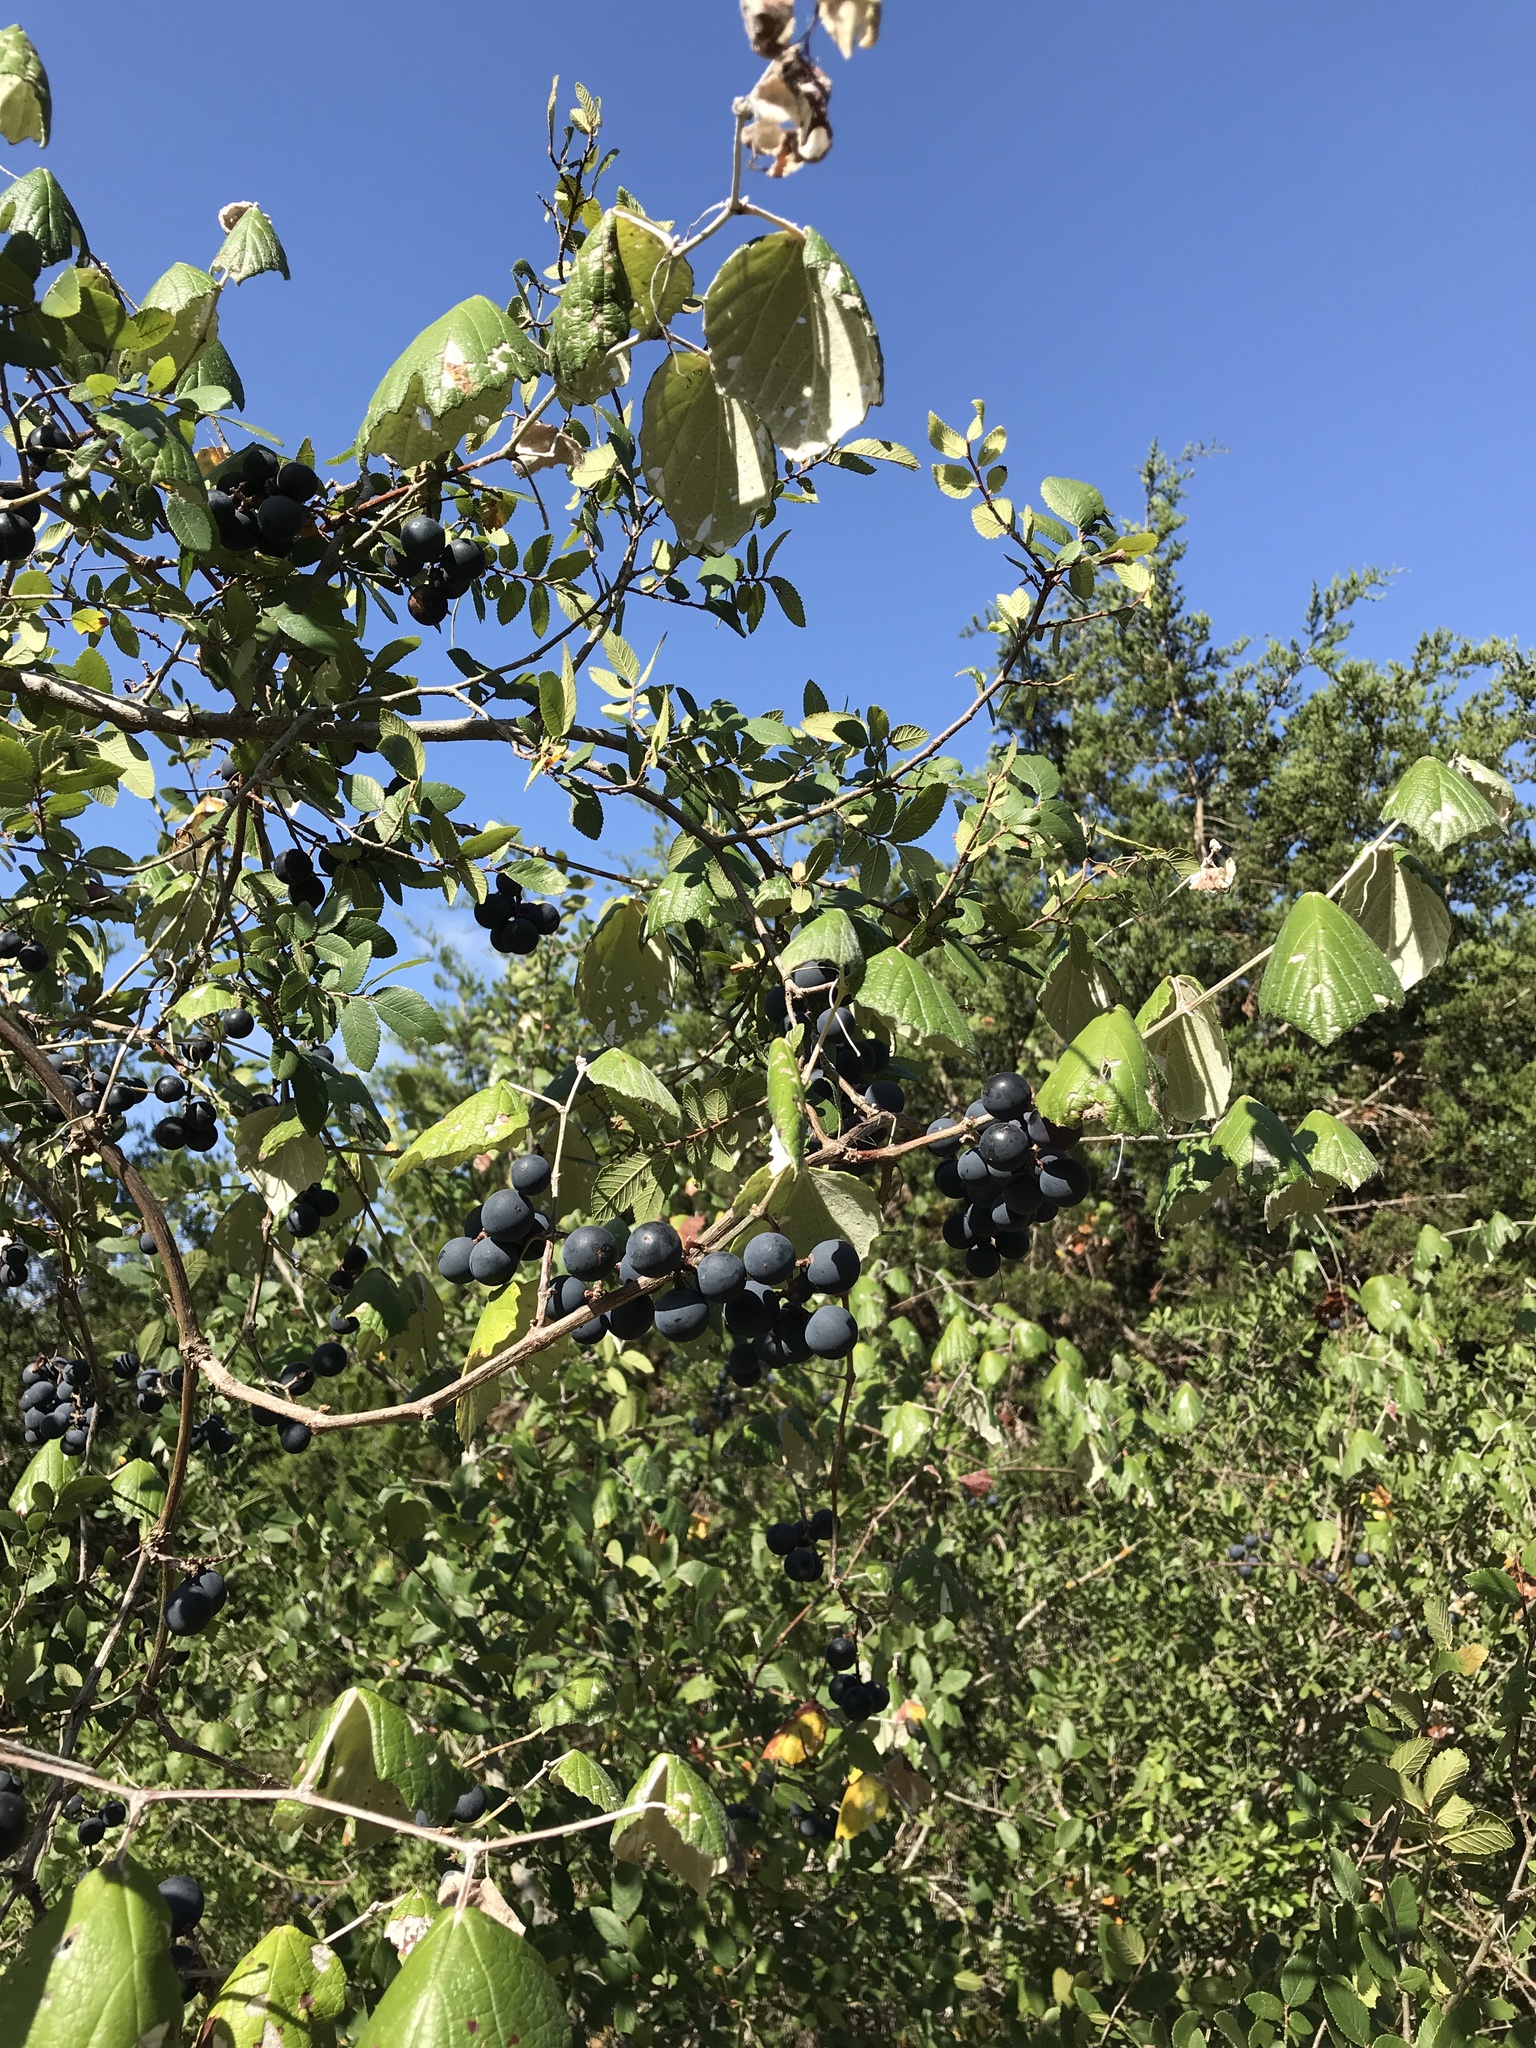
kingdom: Plantae
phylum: Tracheophyta
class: Magnoliopsida
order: Vitales
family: Vitaceae
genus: Vitis
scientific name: Vitis mustangensis
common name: Mustang grape
